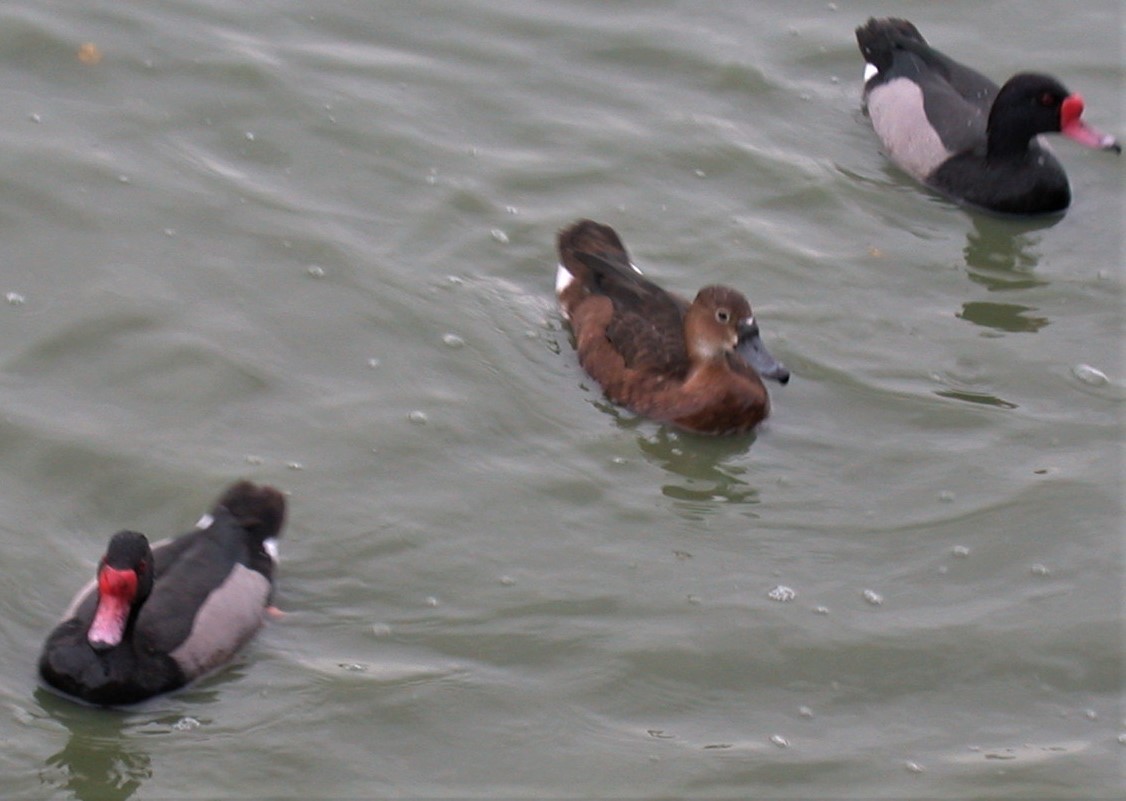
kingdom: Animalia
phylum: Chordata
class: Aves
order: Anseriformes
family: Anatidae
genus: Netta
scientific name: Netta peposaca
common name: Rosy-billed pochard
